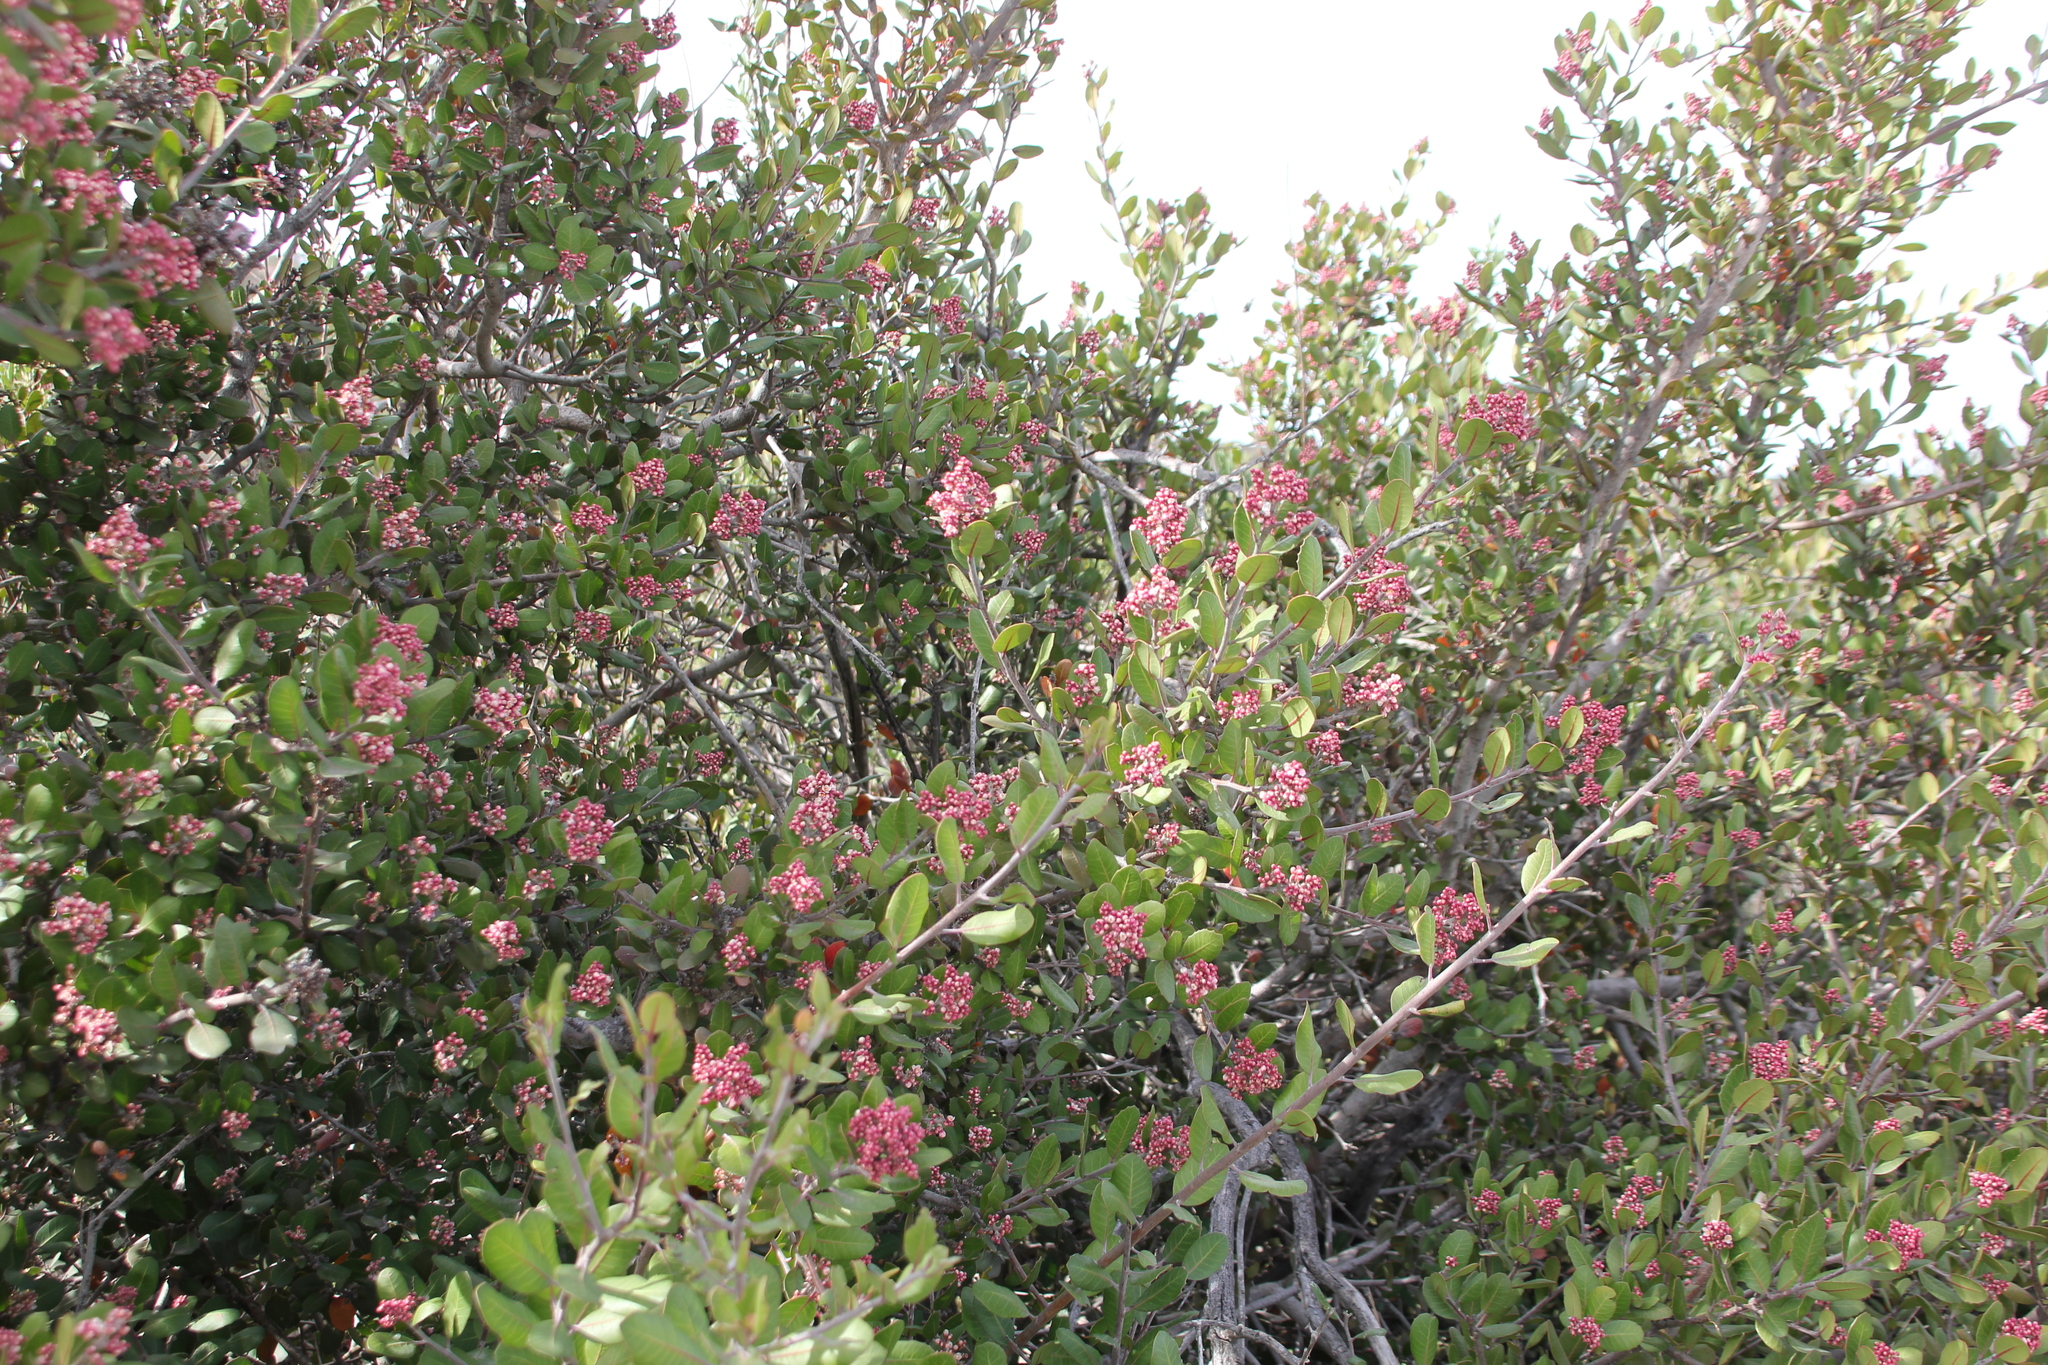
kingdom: Plantae
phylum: Tracheophyta
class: Magnoliopsida
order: Sapindales
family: Anacardiaceae
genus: Rhus
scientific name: Rhus integrifolia
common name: Lemonade sumac
